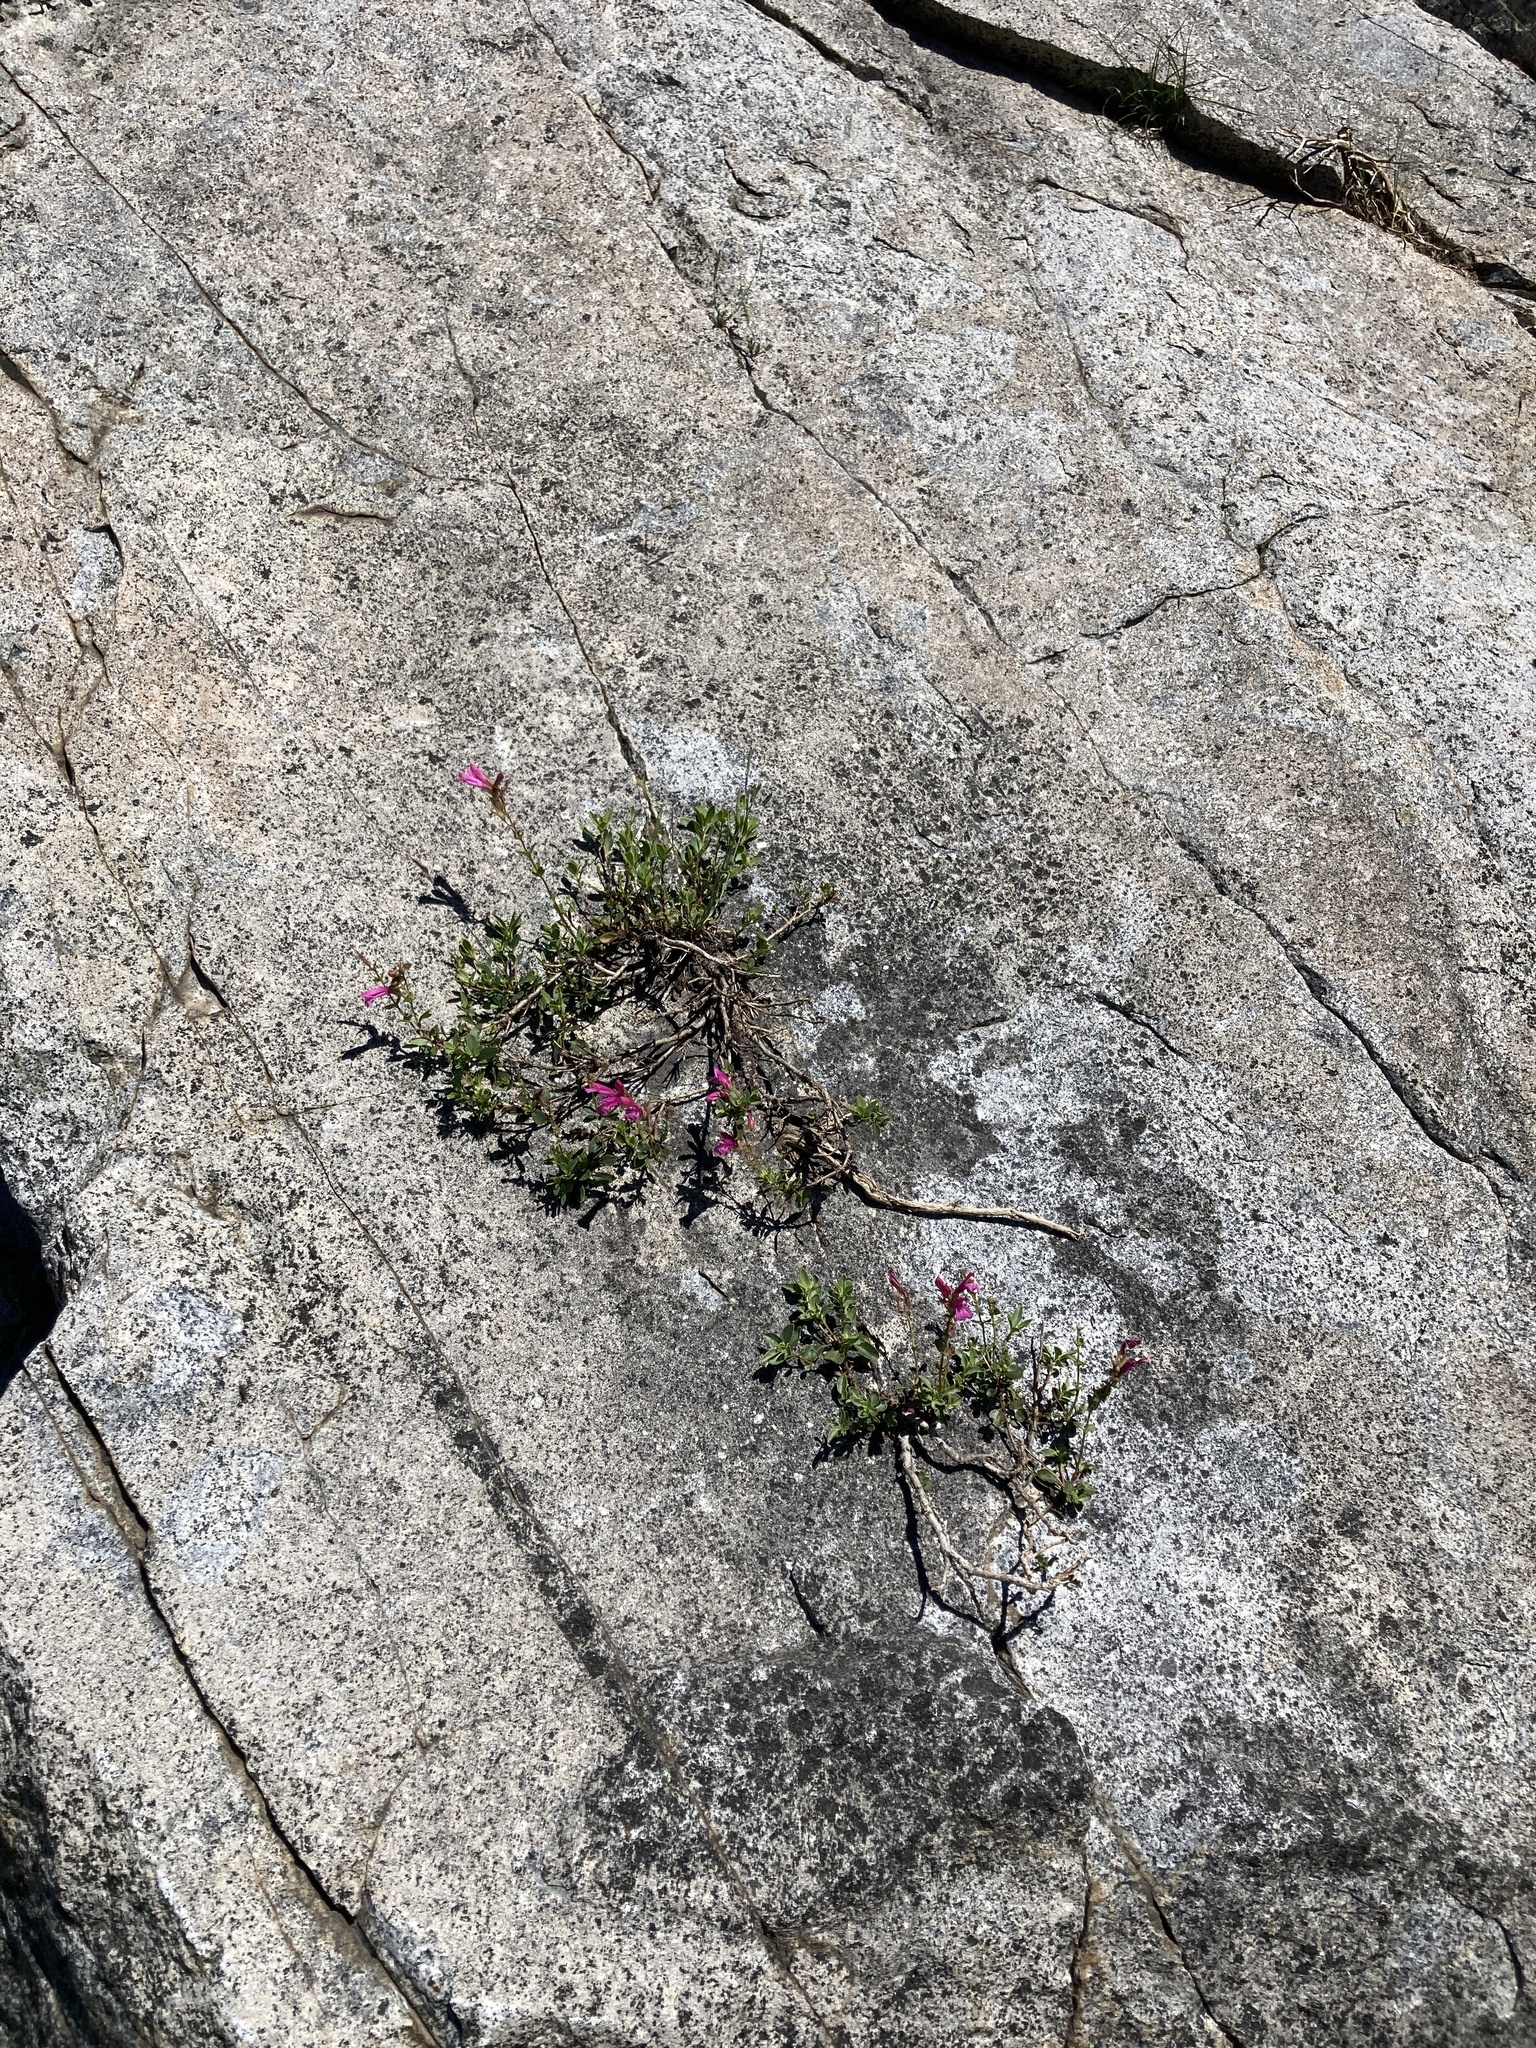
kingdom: Plantae
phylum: Tracheophyta
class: Magnoliopsida
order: Lamiales
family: Plantaginaceae
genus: Penstemon
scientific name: Penstemon newberryi
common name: Mountain-pride
